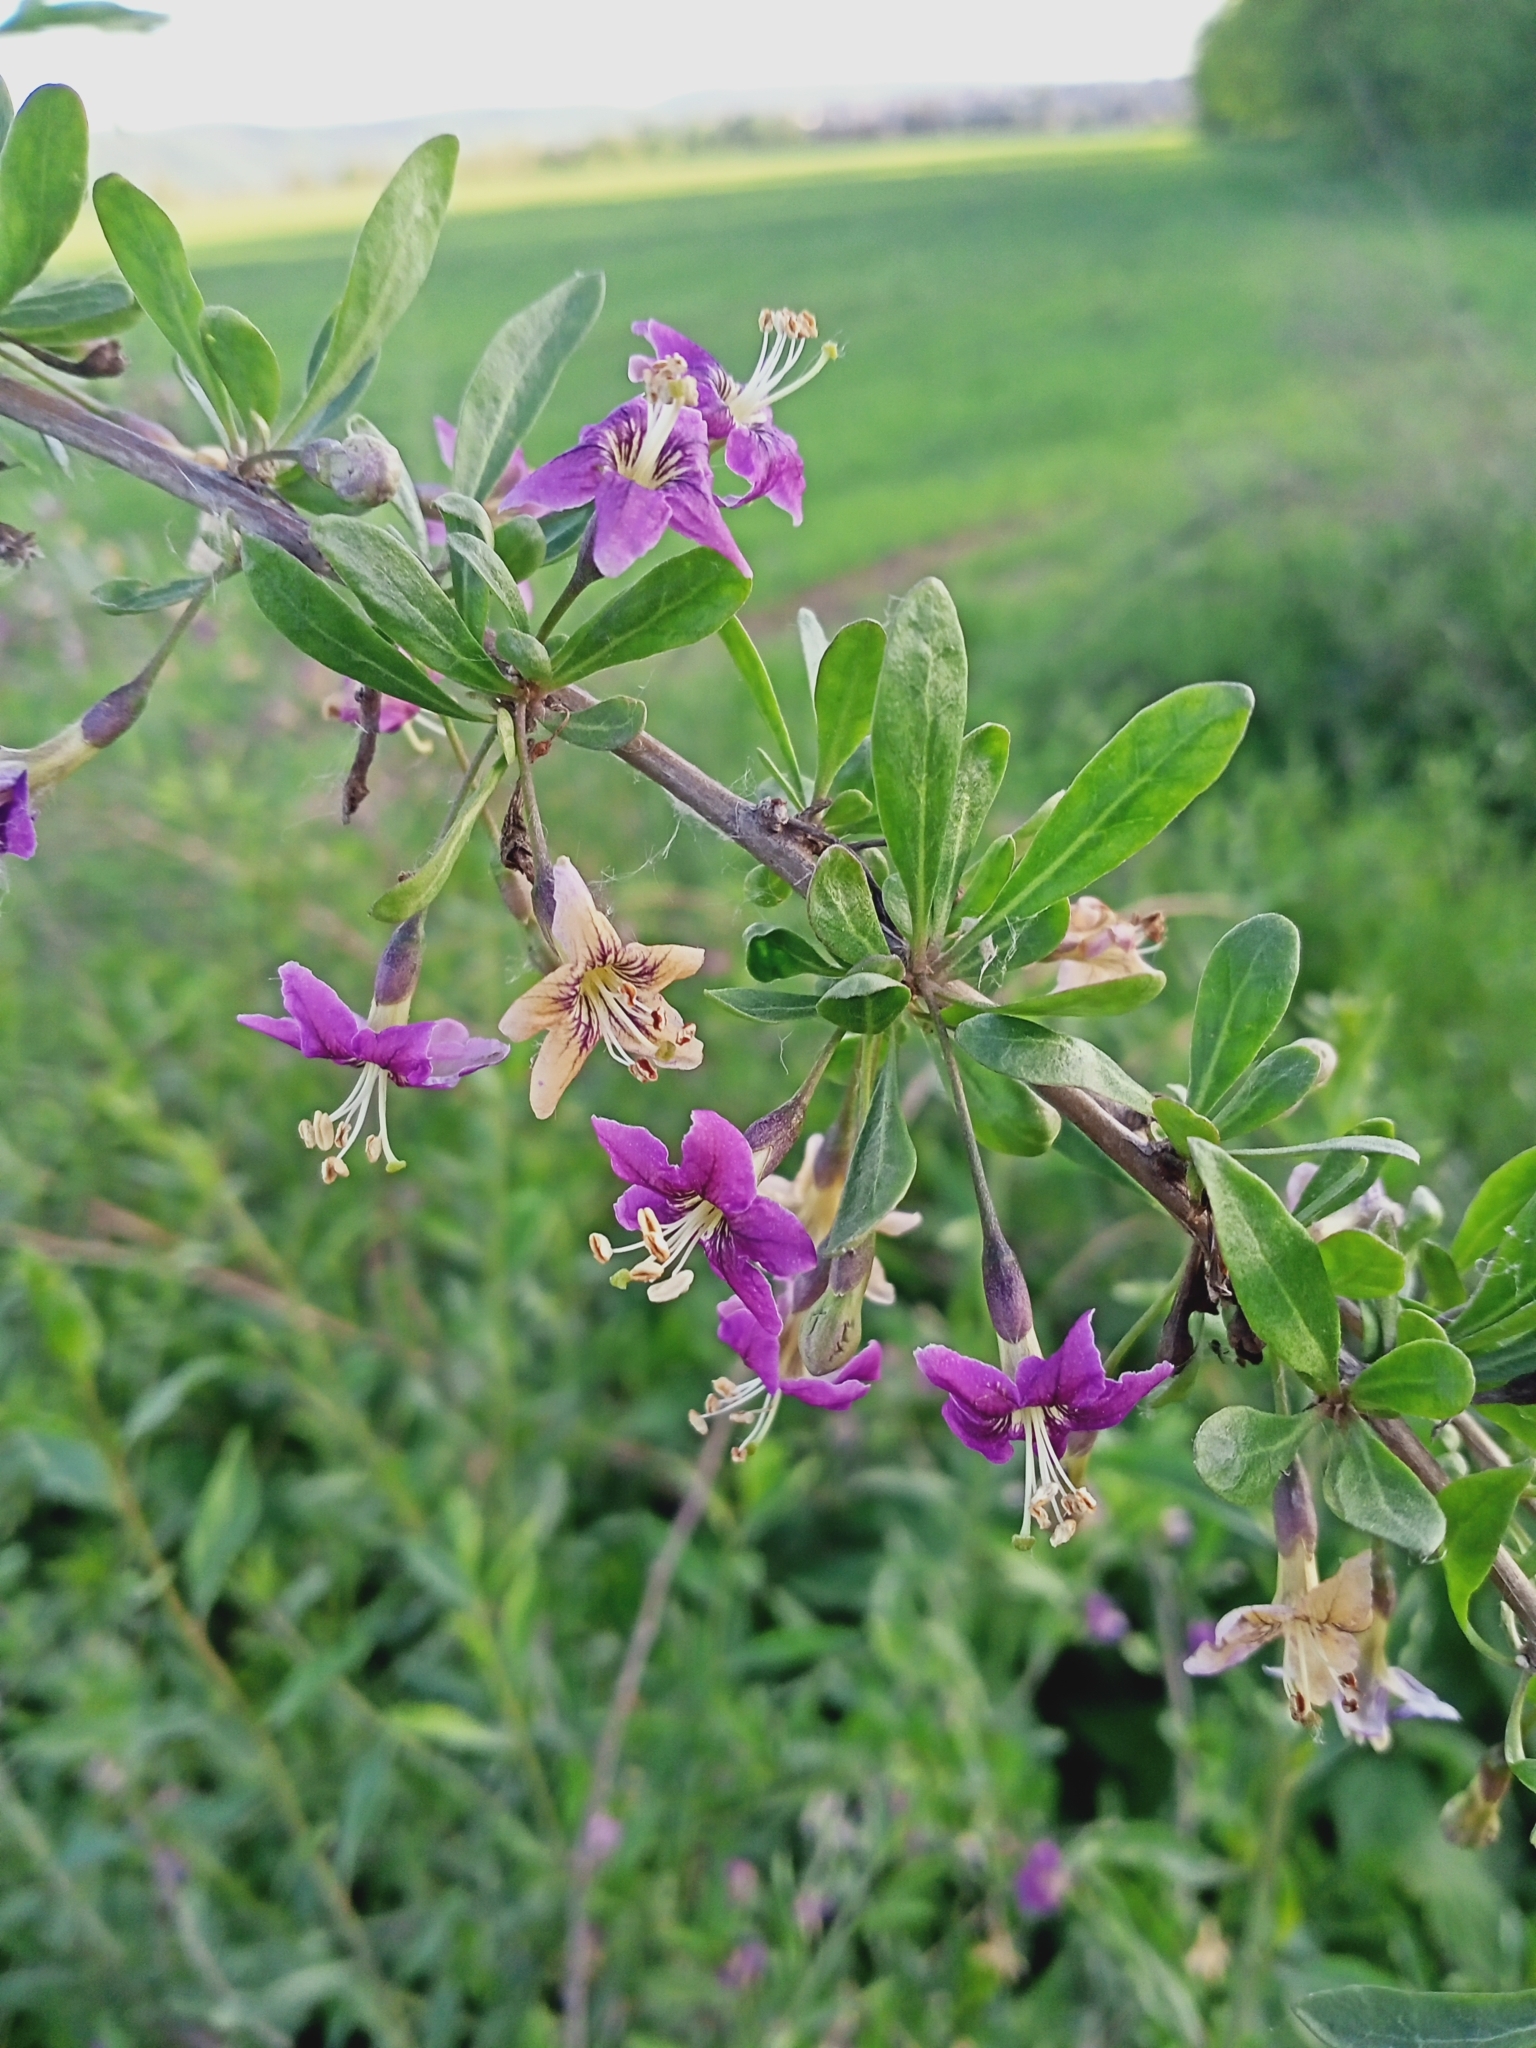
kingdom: Plantae
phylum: Tracheophyta
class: Magnoliopsida
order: Solanales
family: Solanaceae
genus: Lycium
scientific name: Lycium barbarum
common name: Duke of argyll's teaplant
